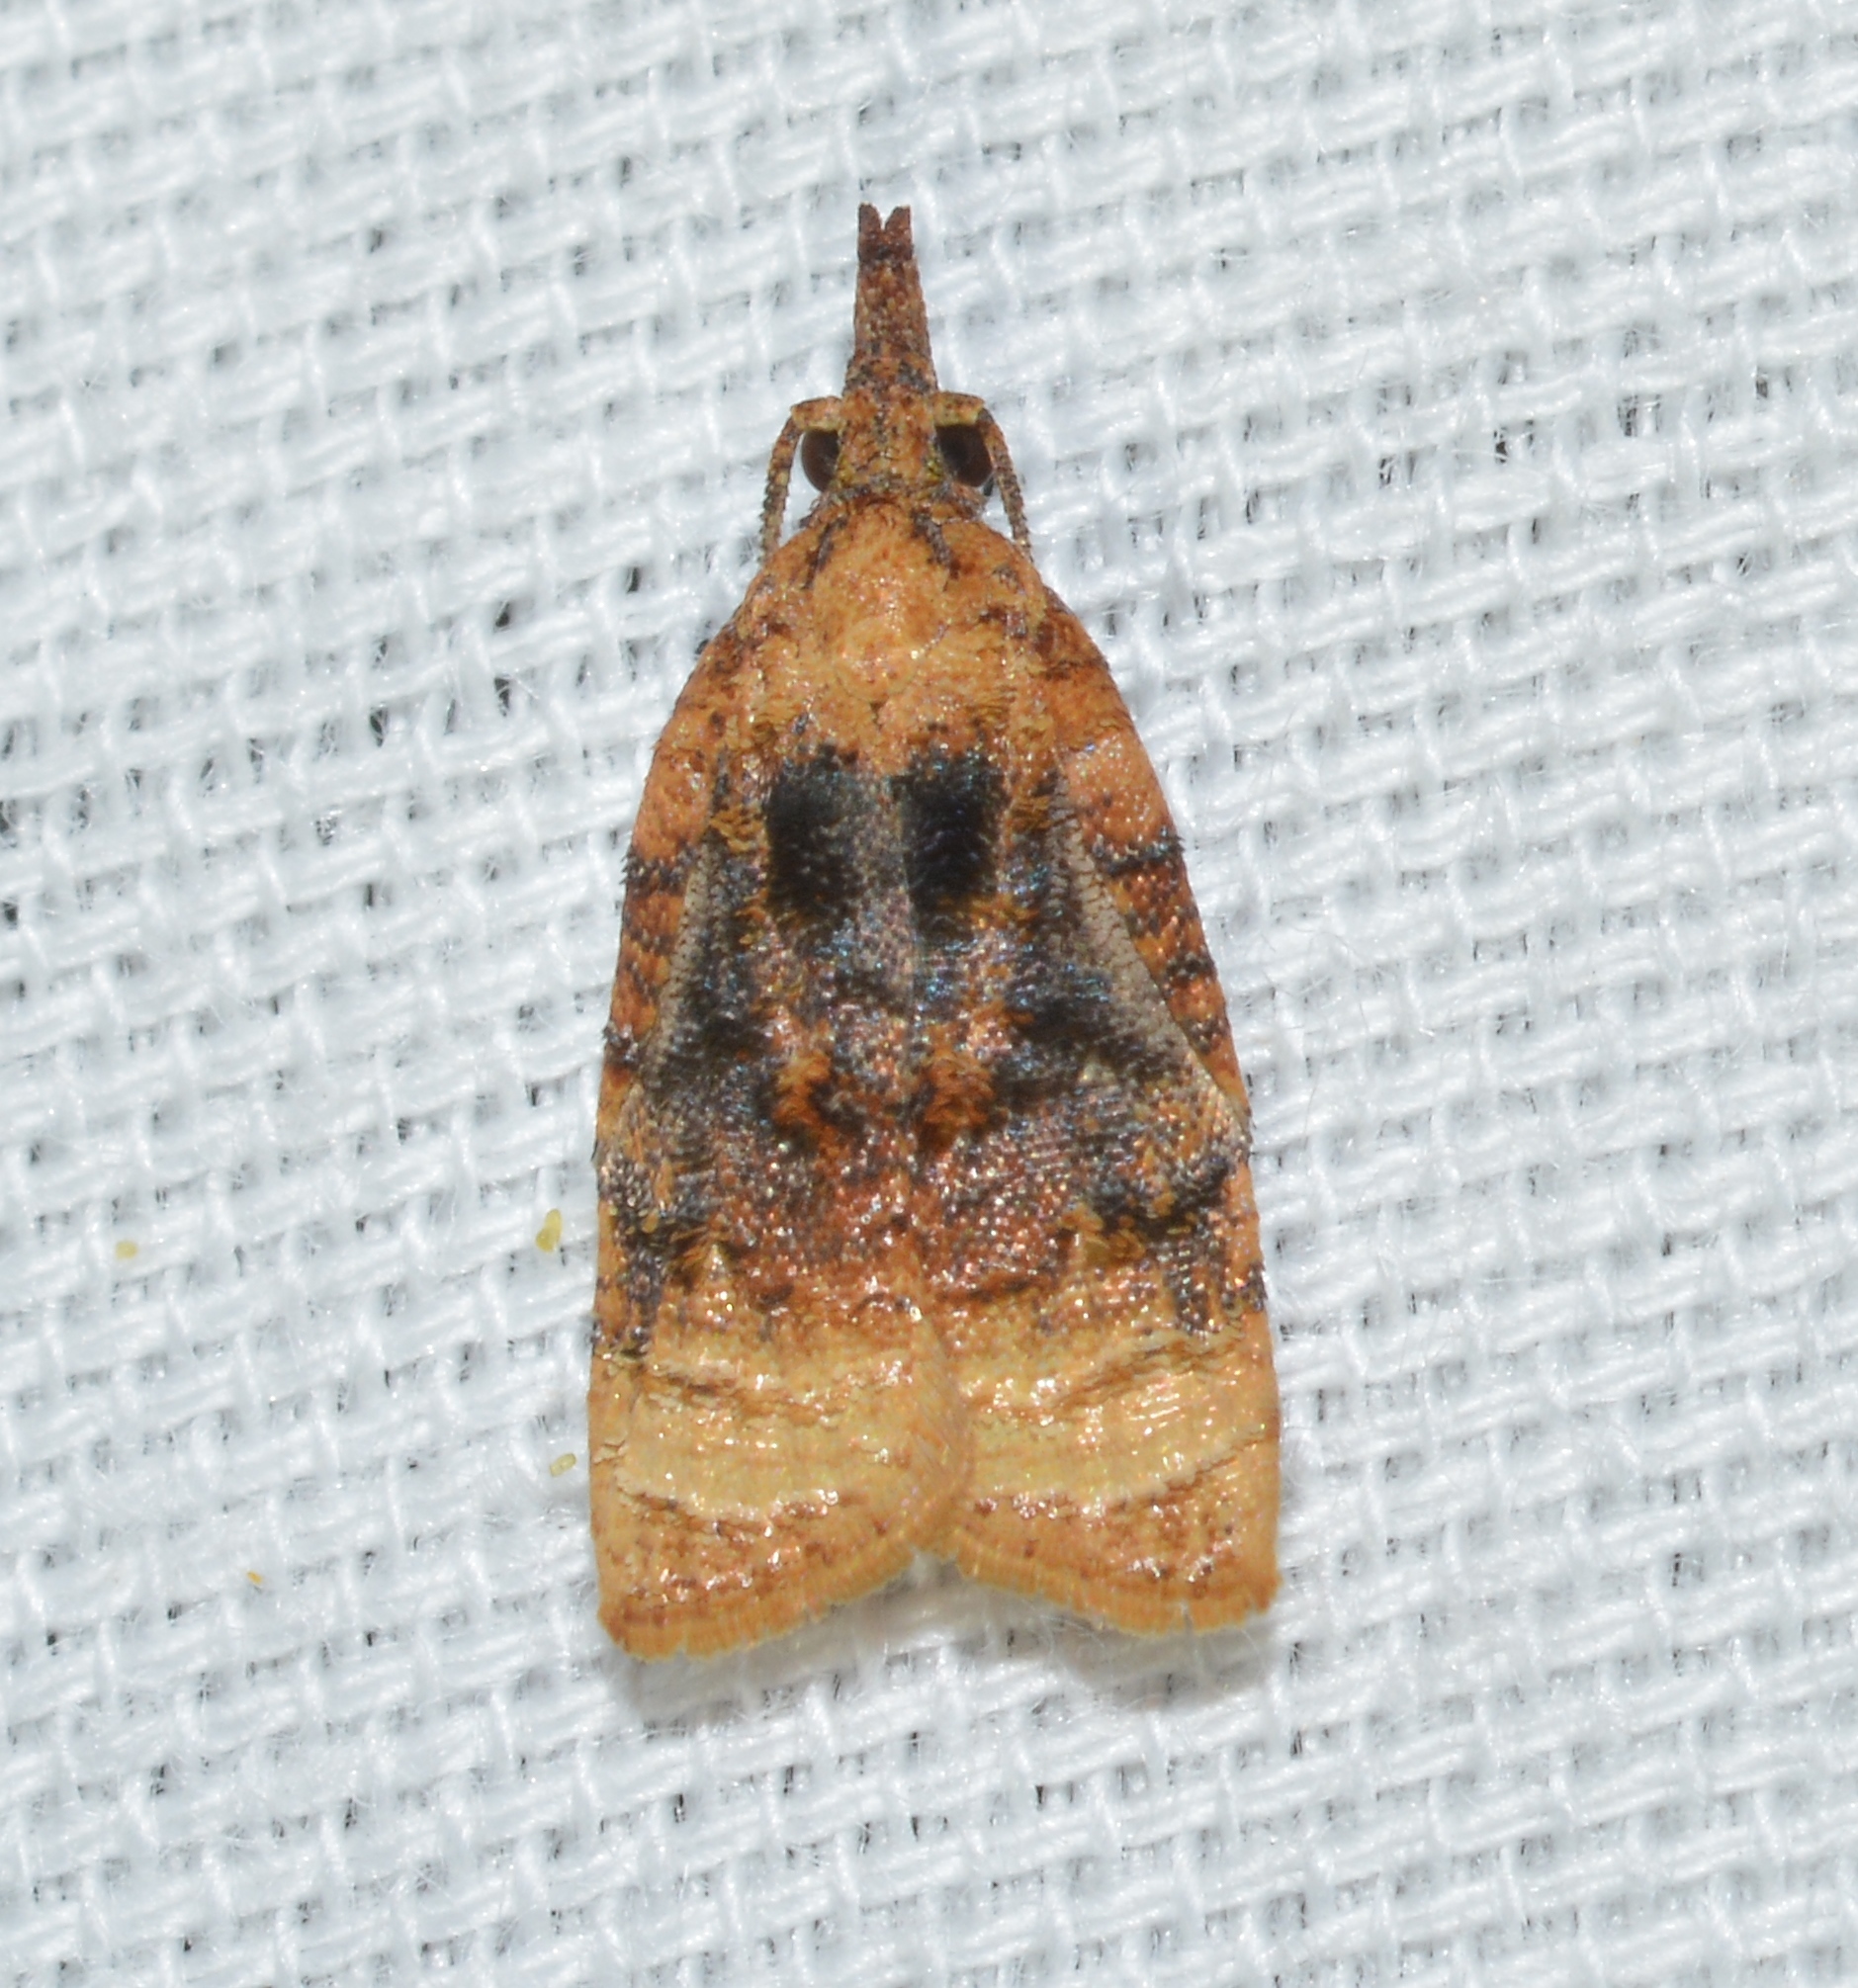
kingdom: Animalia
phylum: Arthropoda
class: Insecta
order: Lepidoptera
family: Tortricidae
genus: Platynota
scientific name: Platynota flavedana
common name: Black-shaded platynota moth
